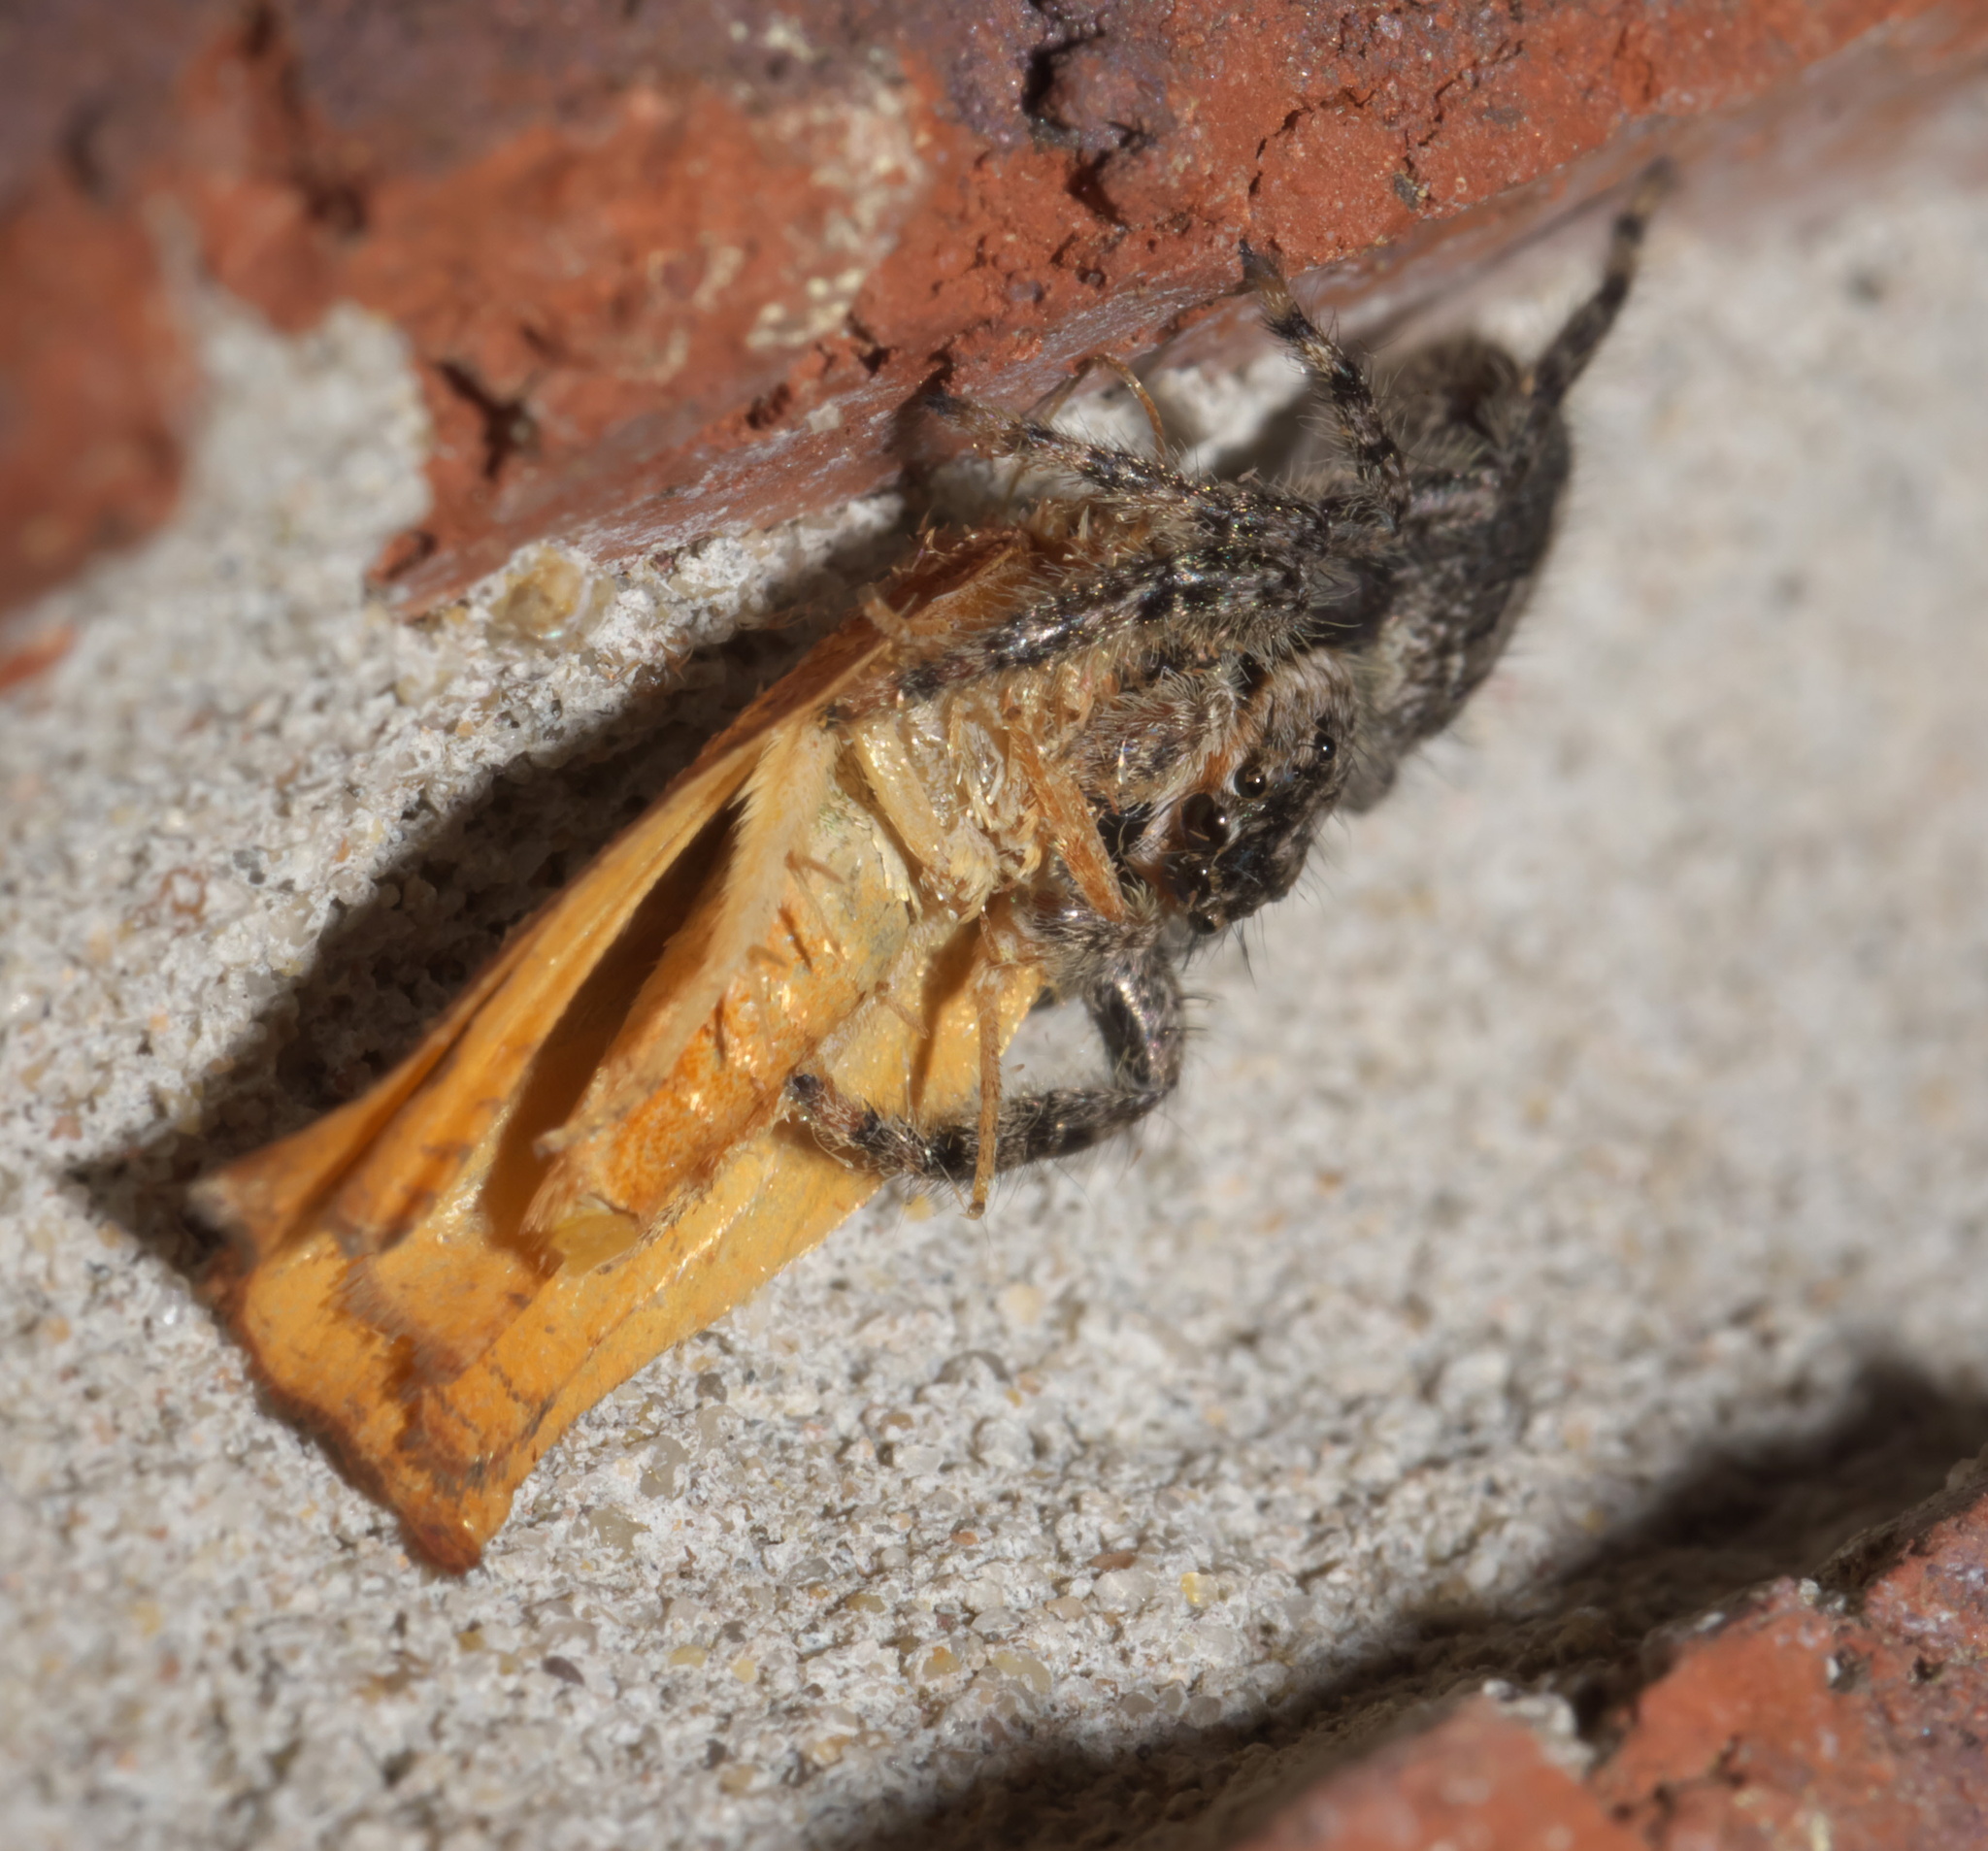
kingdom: Animalia
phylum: Arthropoda
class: Arachnida
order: Araneae
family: Salticidae
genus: Platycryptus
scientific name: Platycryptus undatus
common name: Tan jumping spider
